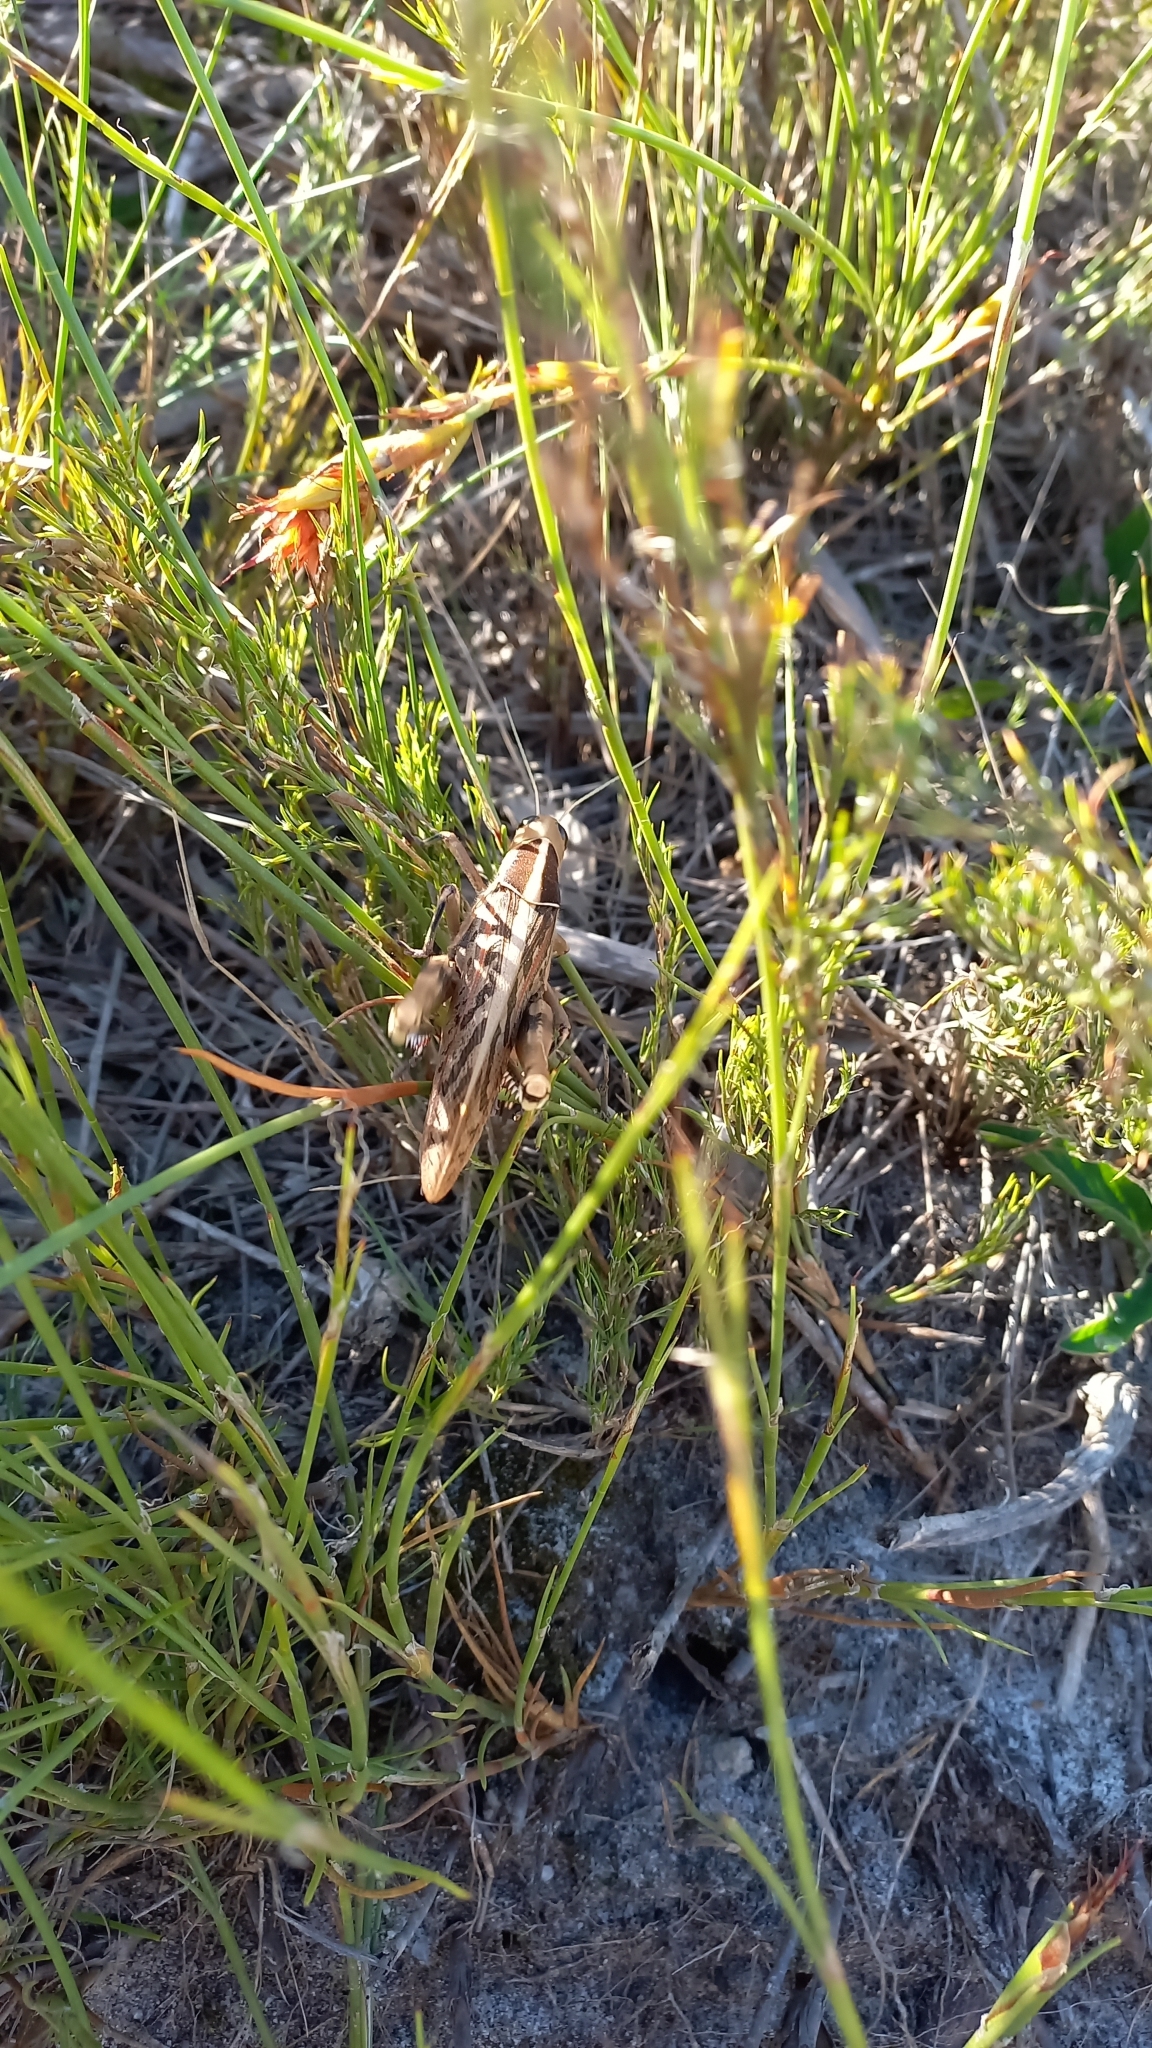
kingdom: Animalia
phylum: Arthropoda
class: Insecta
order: Orthoptera
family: Acrididae
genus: Acanthacris
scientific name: Acanthacris ruficornis
